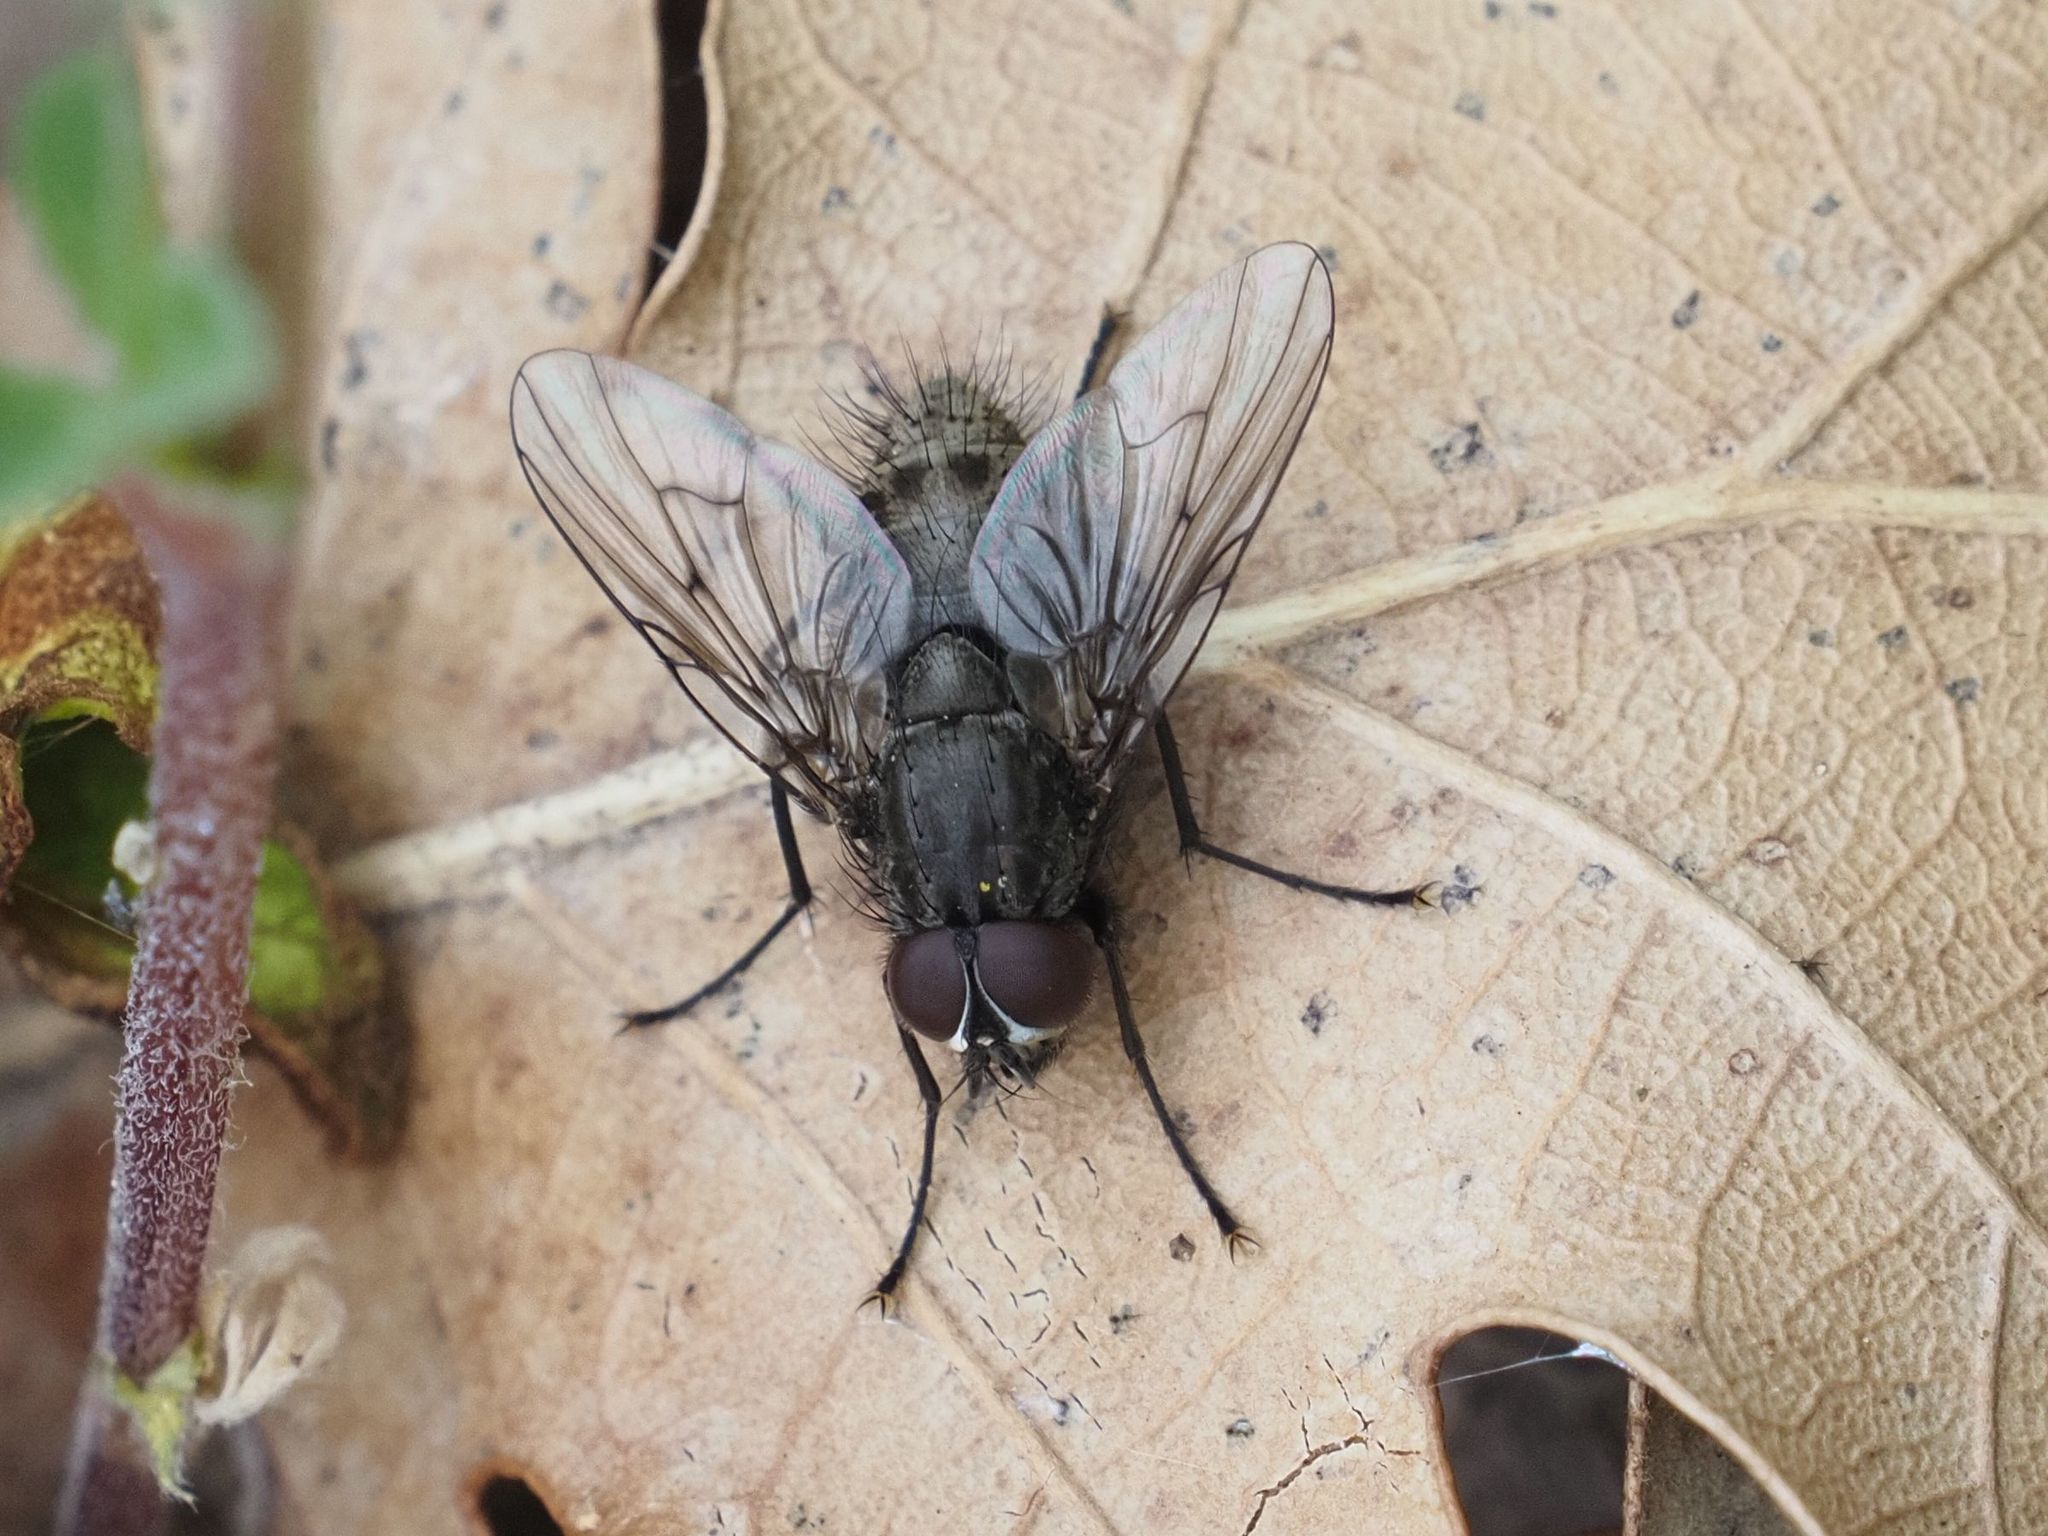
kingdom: Animalia
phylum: Arthropoda
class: Insecta
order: Diptera
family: Muscidae
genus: Helina
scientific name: Helina evecta
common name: Muscid fly
